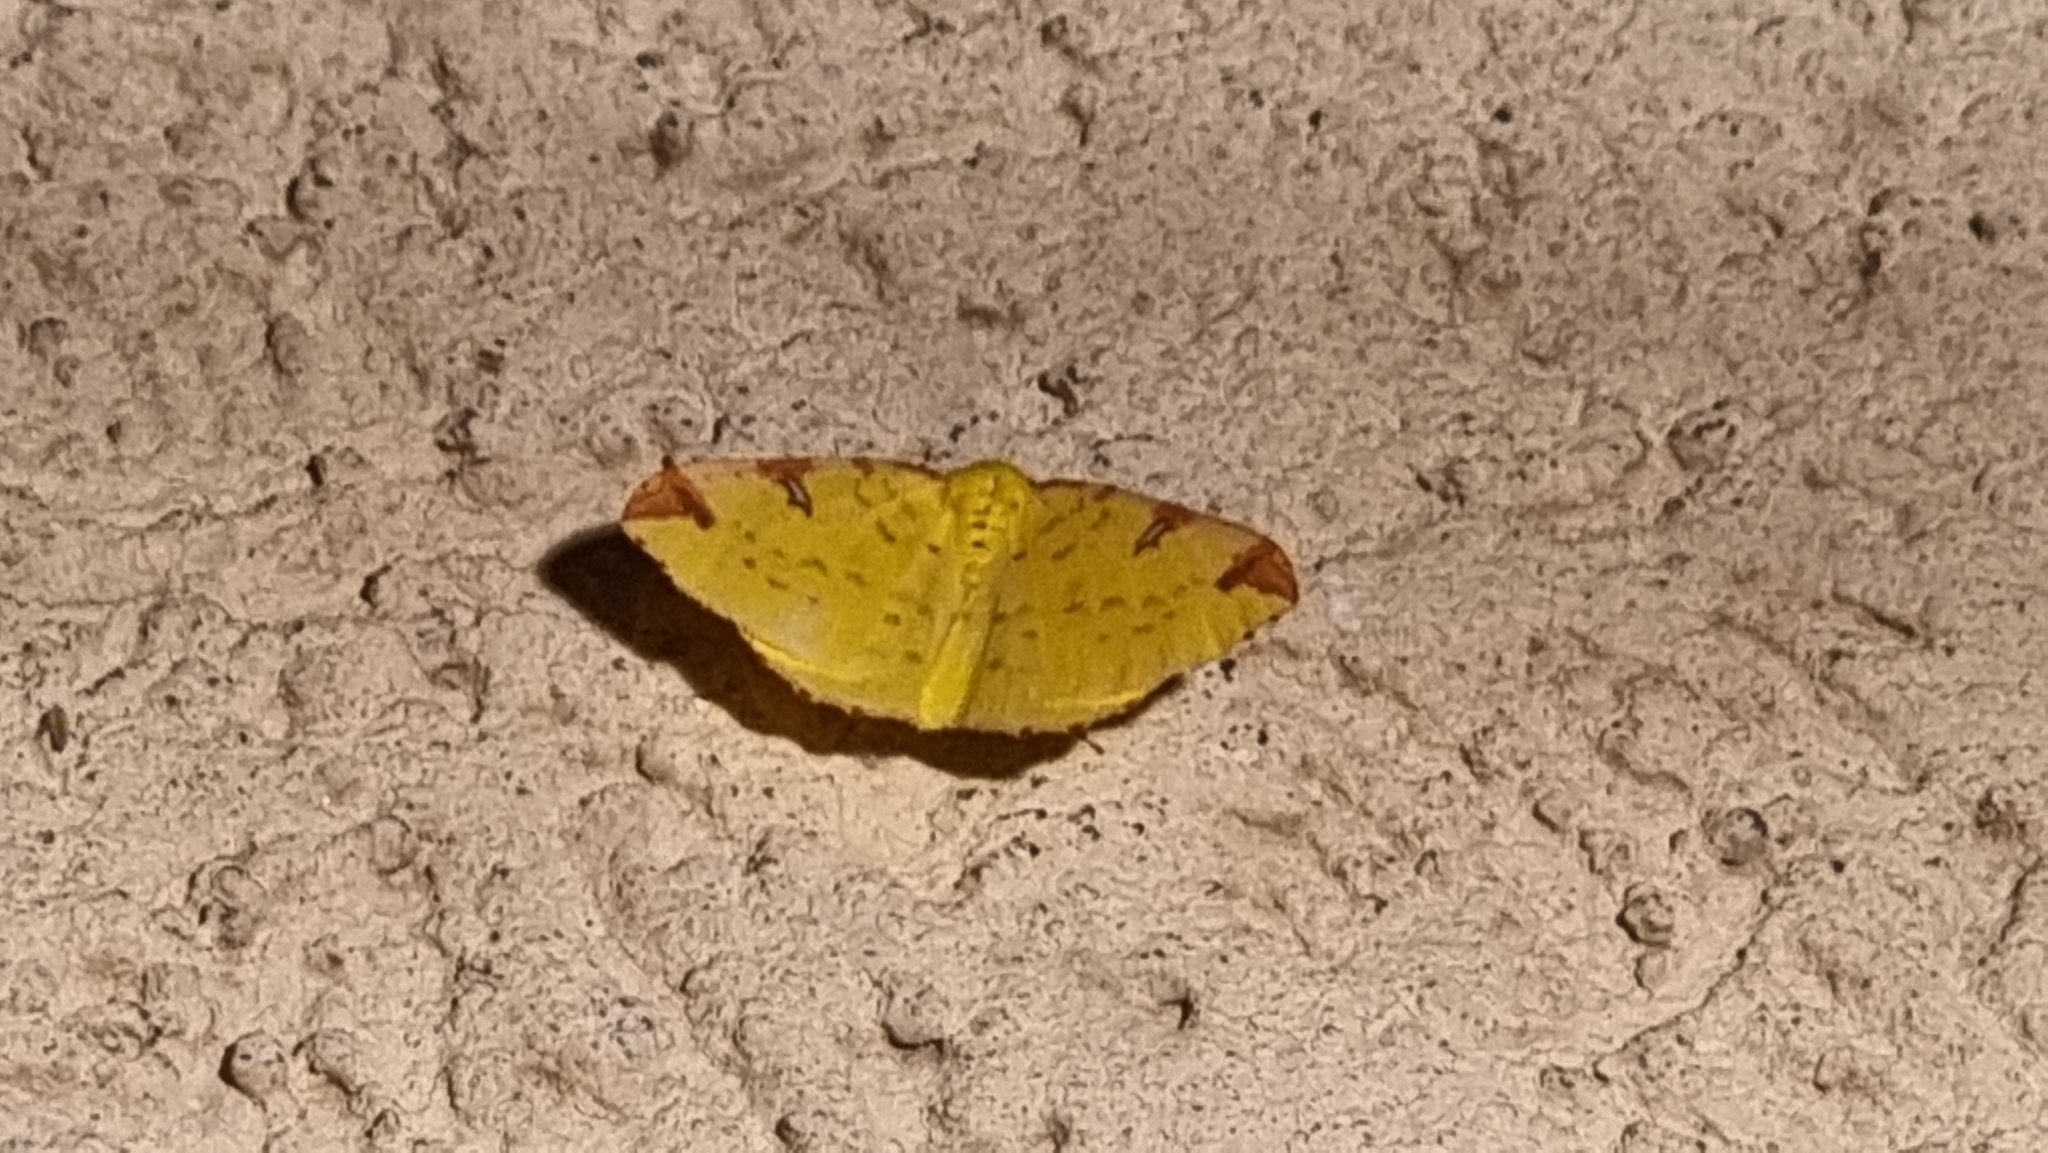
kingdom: Animalia
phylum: Arthropoda
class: Insecta
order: Lepidoptera
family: Geometridae
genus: Opisthograptis
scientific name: Opisthograptis luteolata
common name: Brimstone moth
